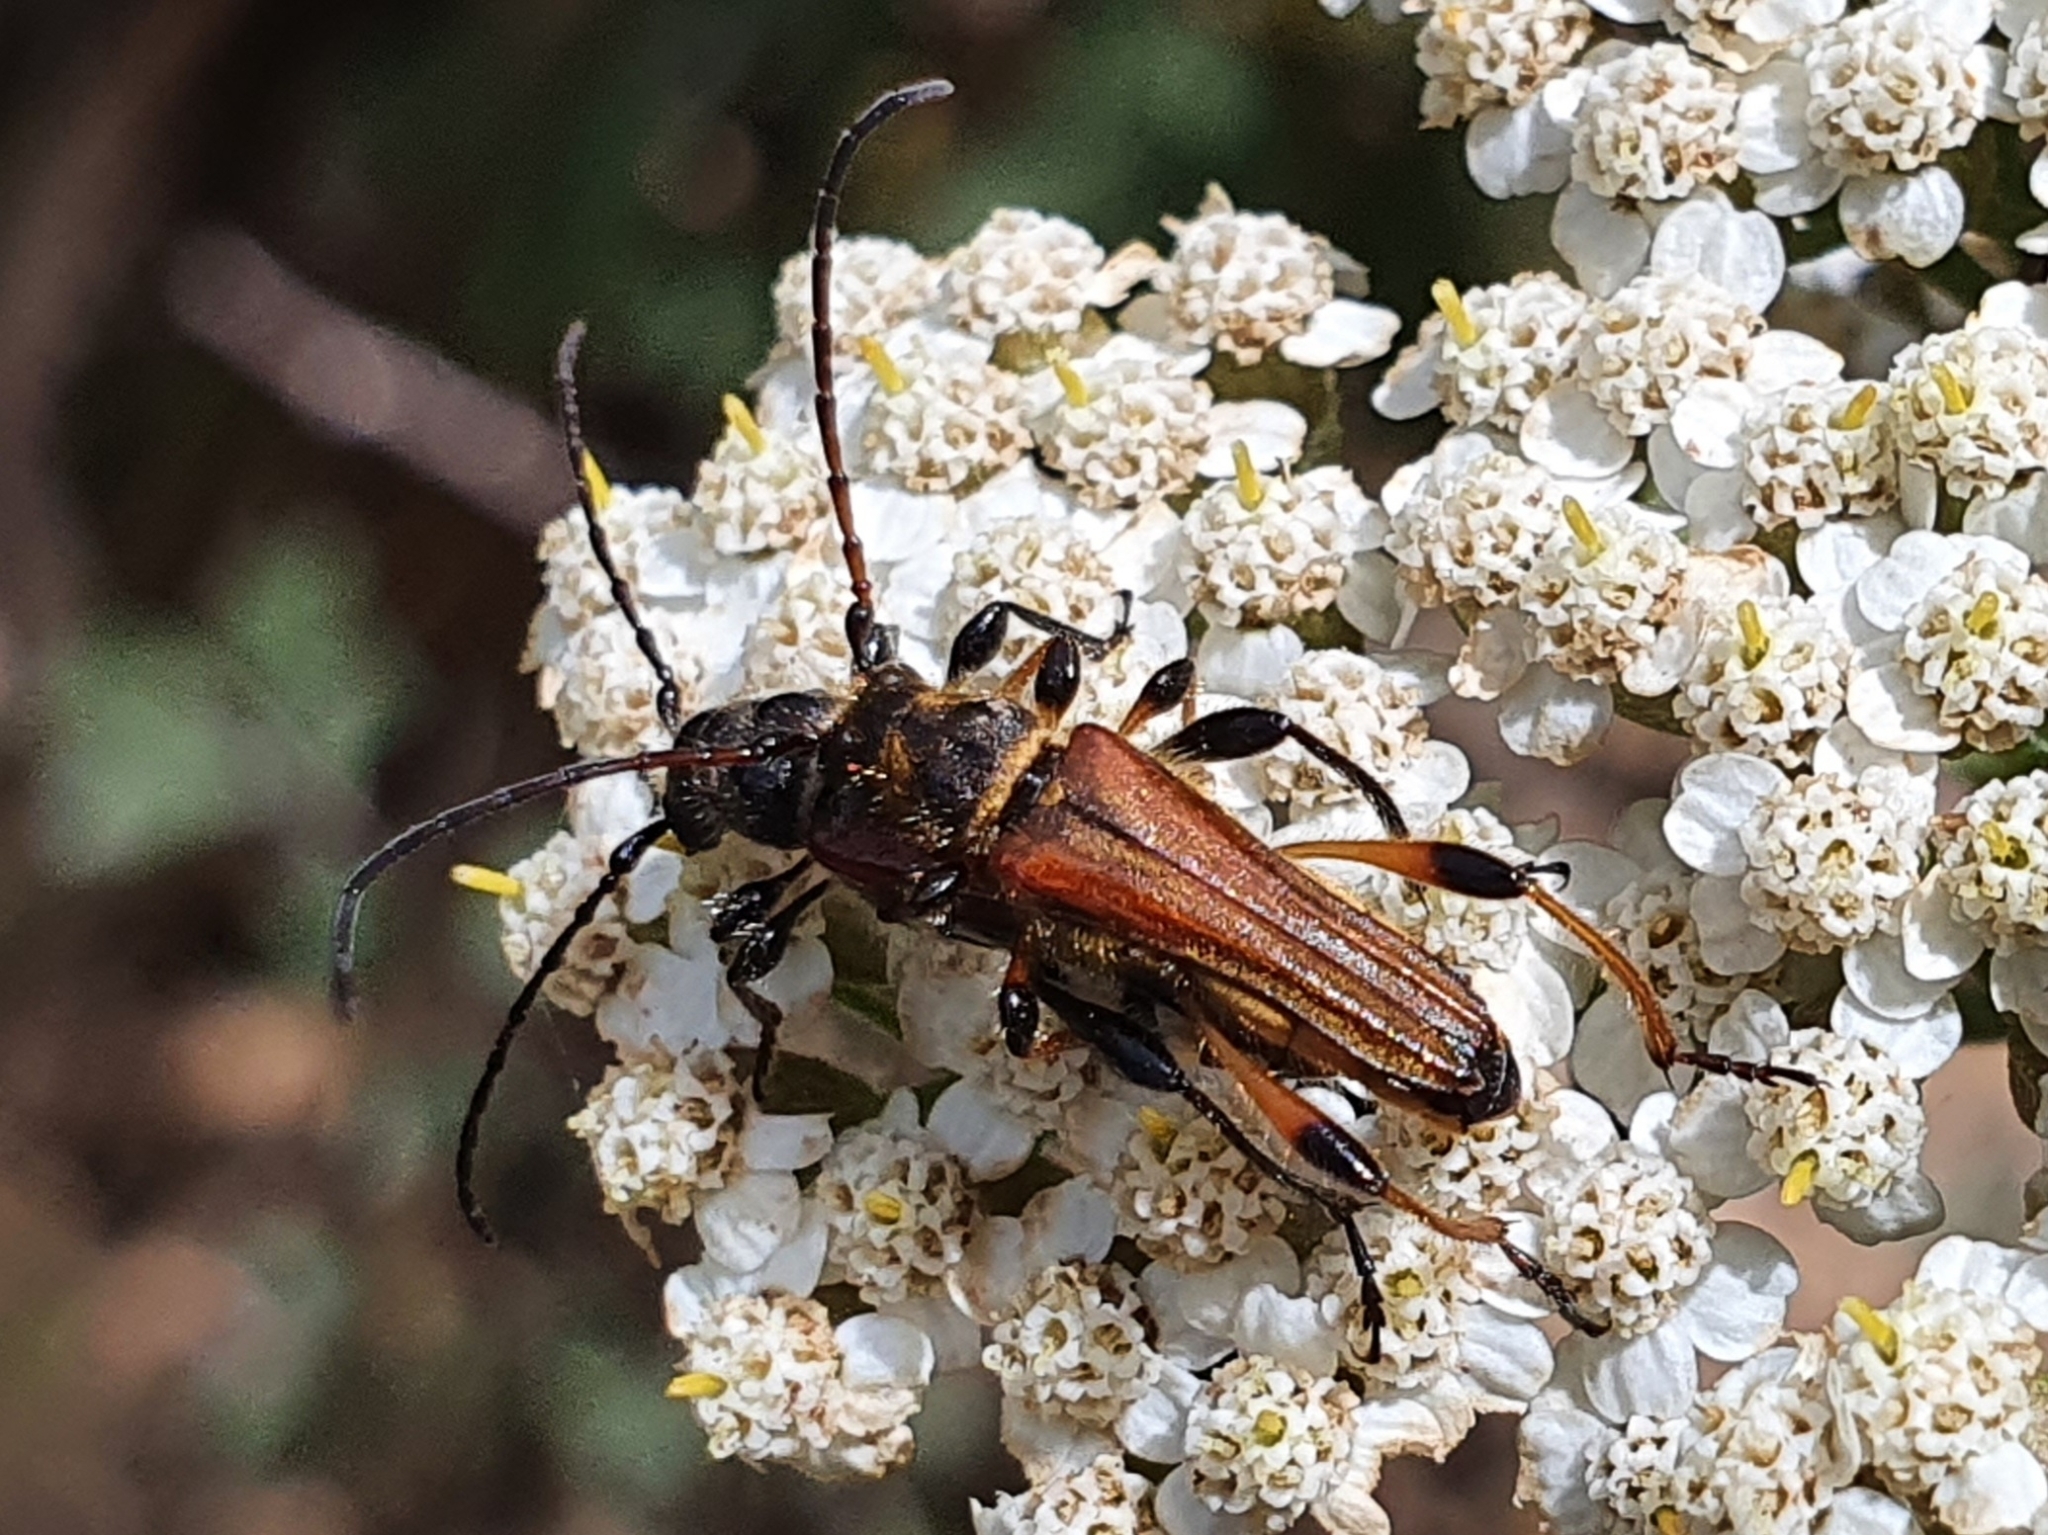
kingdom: Animalia
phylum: Arthropoda
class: Insecta
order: Coleoptera
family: Cerambycidae
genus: Stenopterus
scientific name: Stenopterus ater
